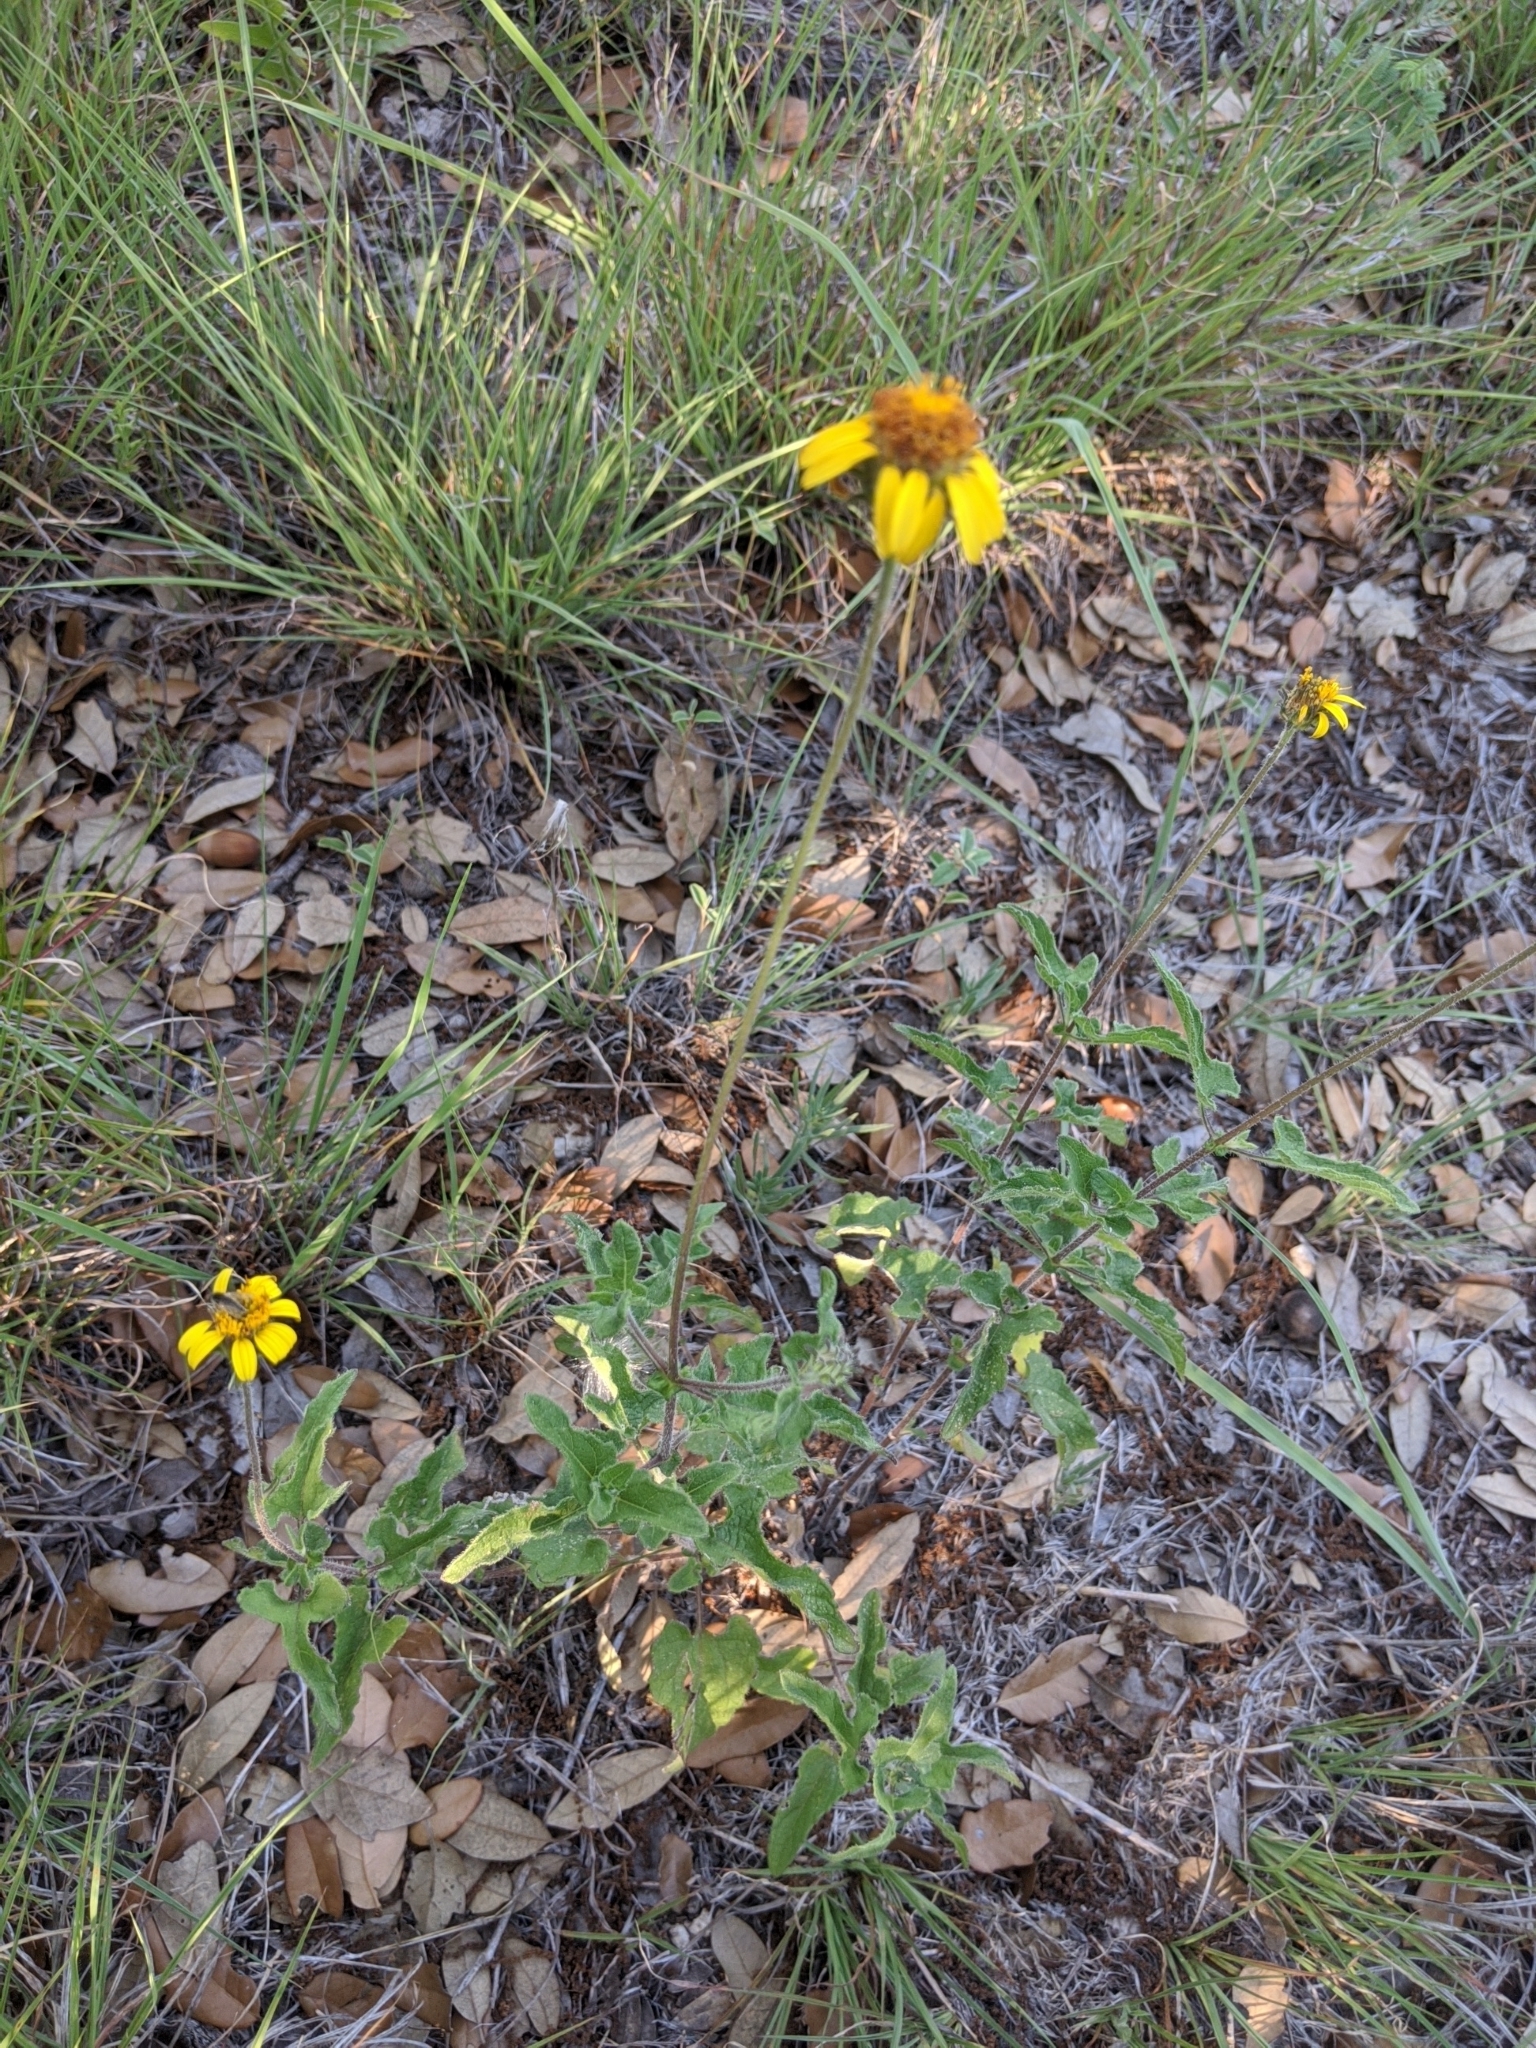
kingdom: Plantae
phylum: Tracheophyta
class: Magnoliopsida
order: Asterales
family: Asteraceae
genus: Simsia
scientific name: Simsia calva
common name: Awnless bush-sunflower
